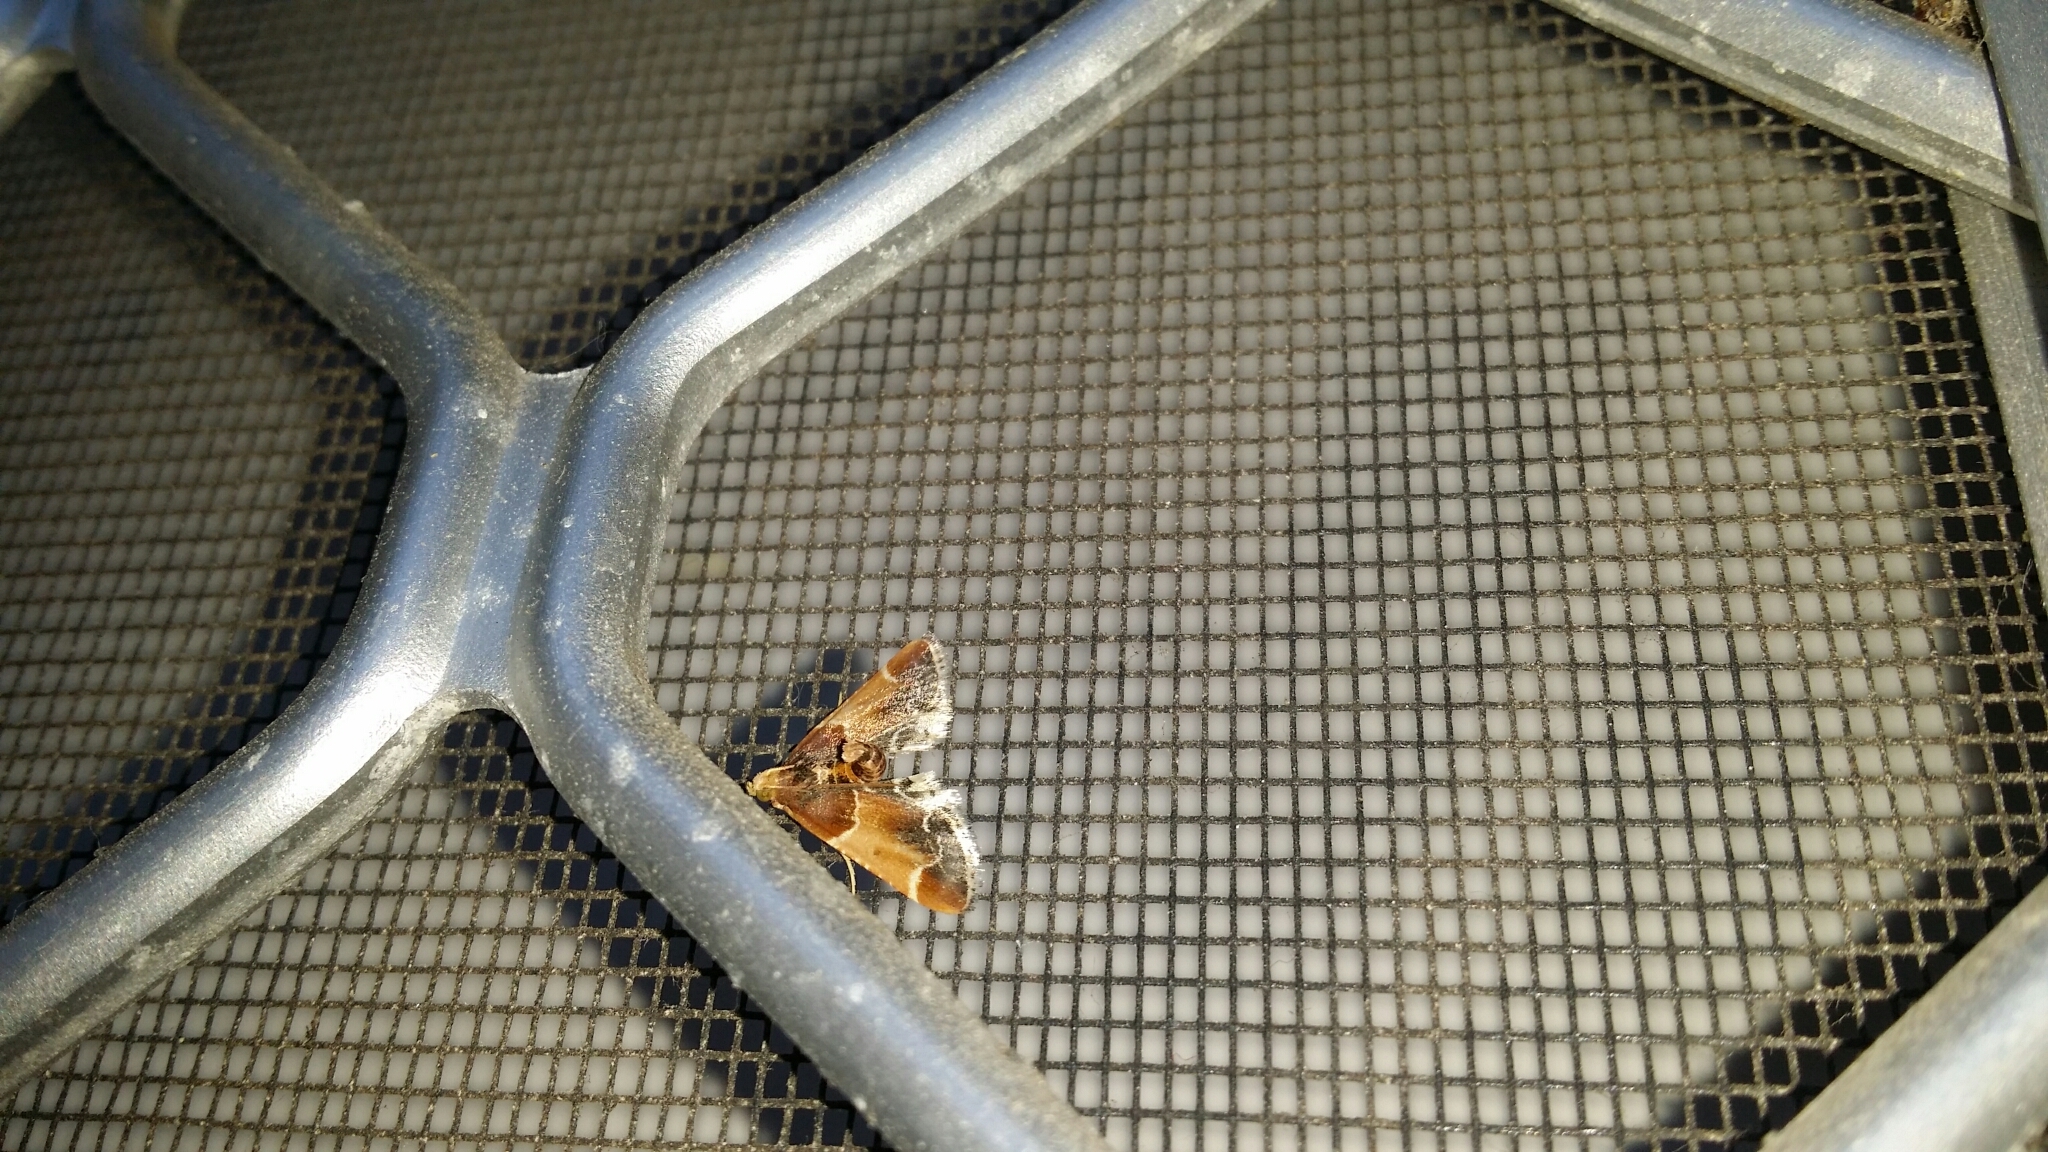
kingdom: Animalia
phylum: Arthropoda
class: Insecta
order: Lepidoptera
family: Pyralidae
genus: Pyralis
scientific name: Pyralis farinalis
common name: Meal moth
